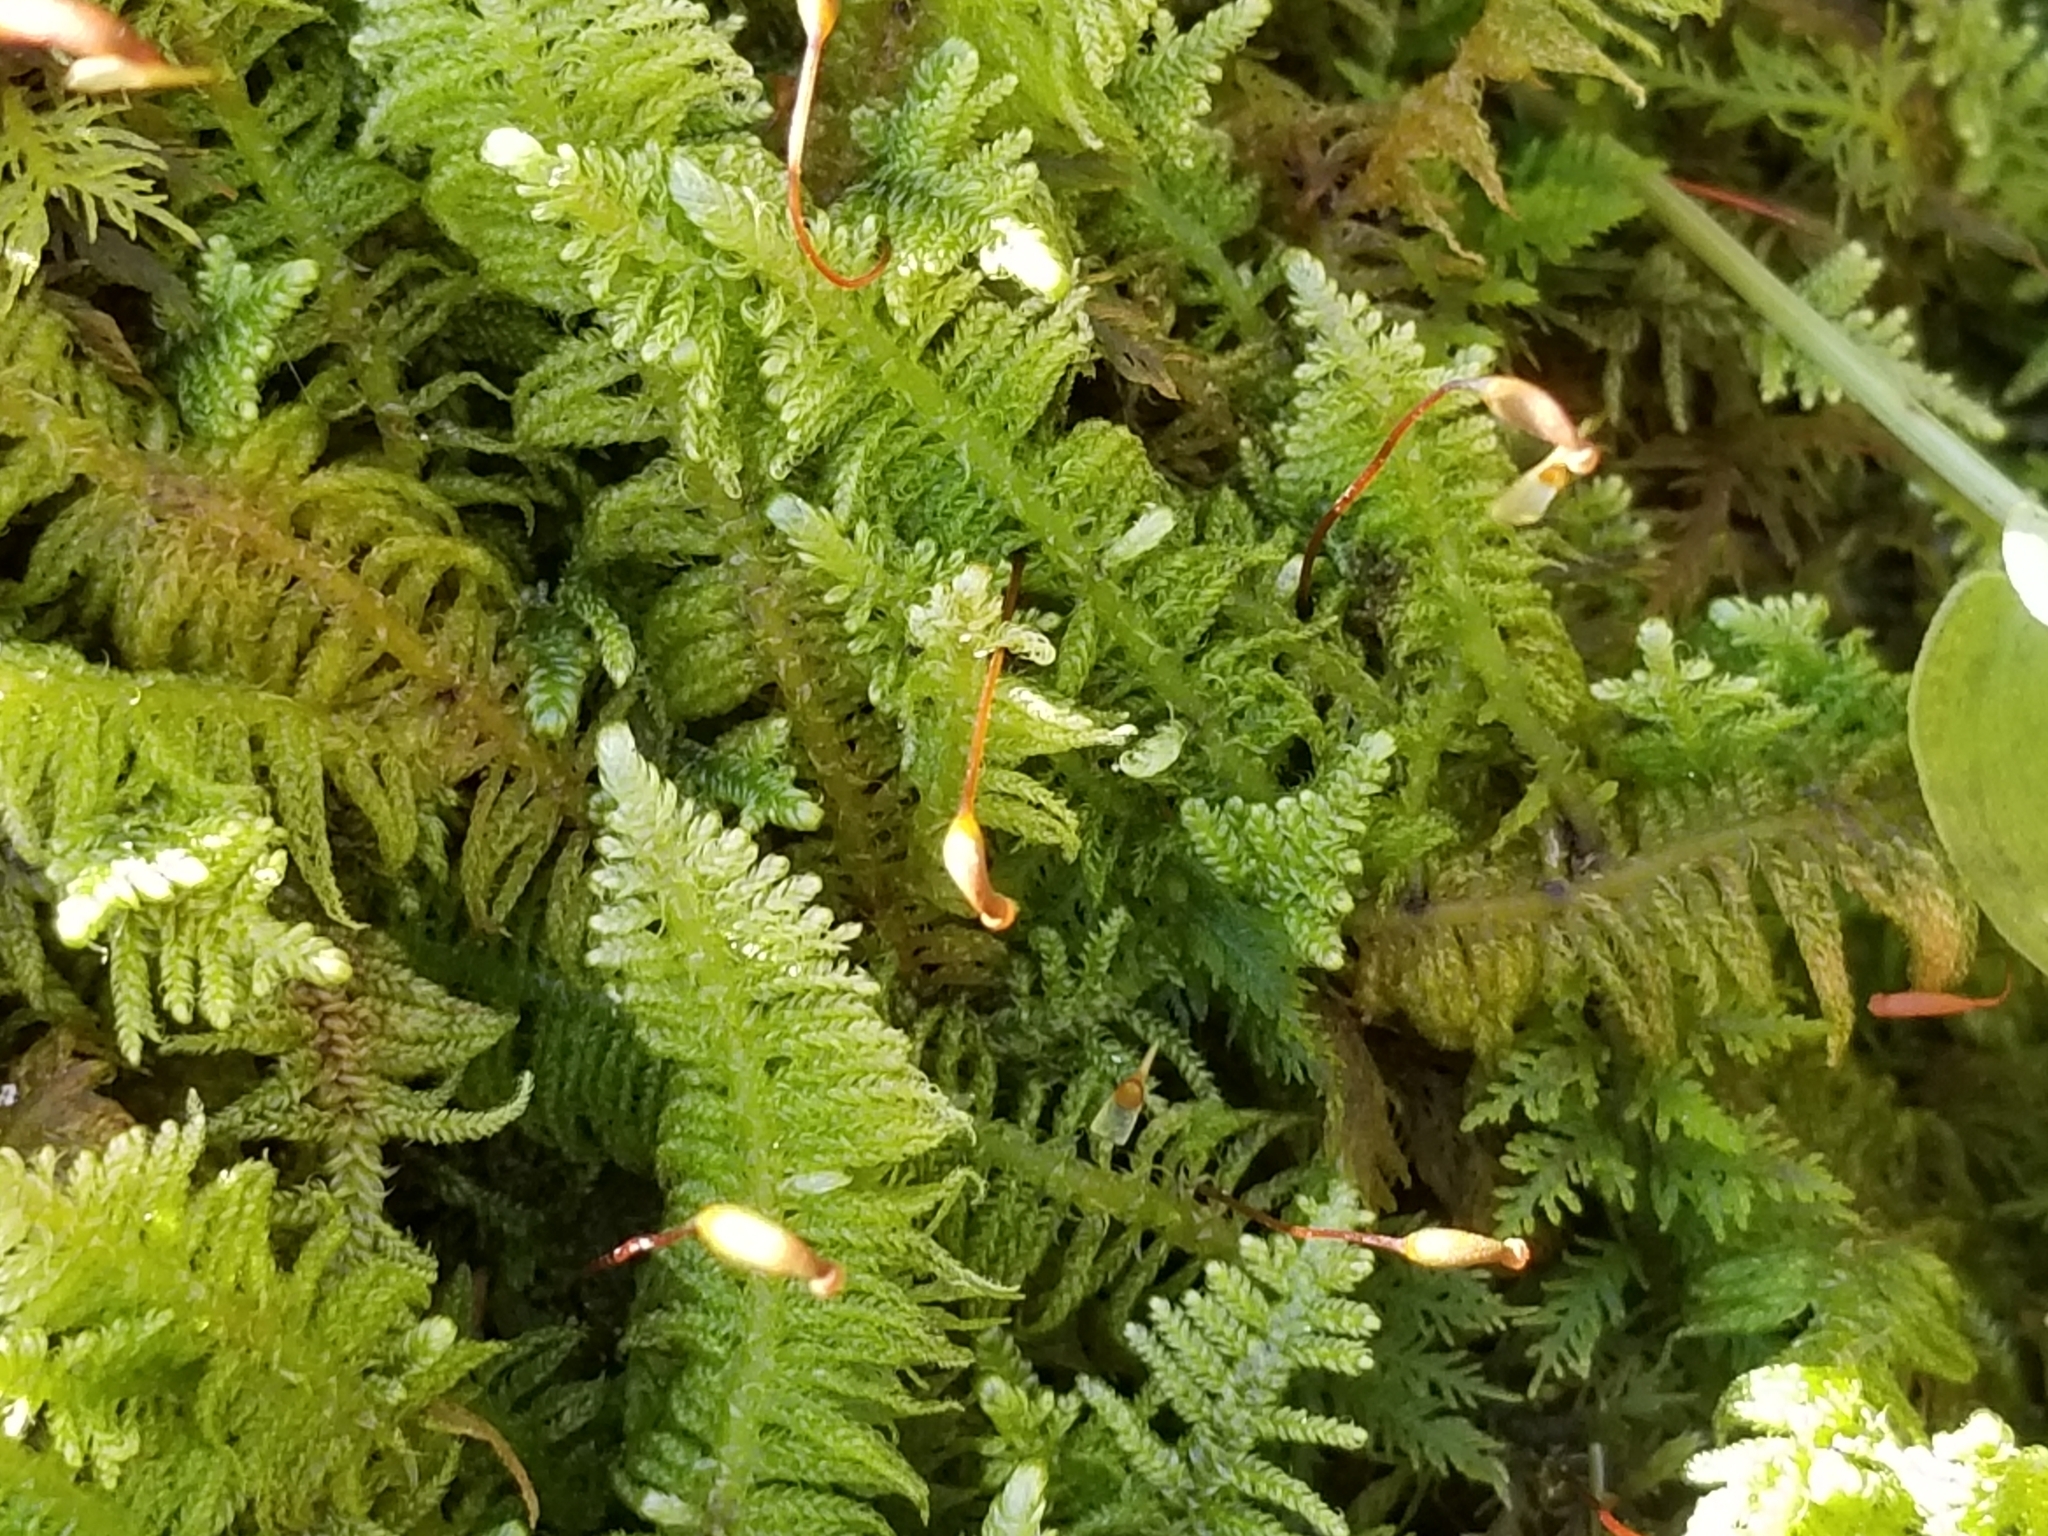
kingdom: Plantae
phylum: Bryophyta
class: Bryopsida
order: Hypnales
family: Pylaisiaceae
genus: Ptilium
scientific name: Ptilium crista-castrensis
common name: Knight's plume moss
